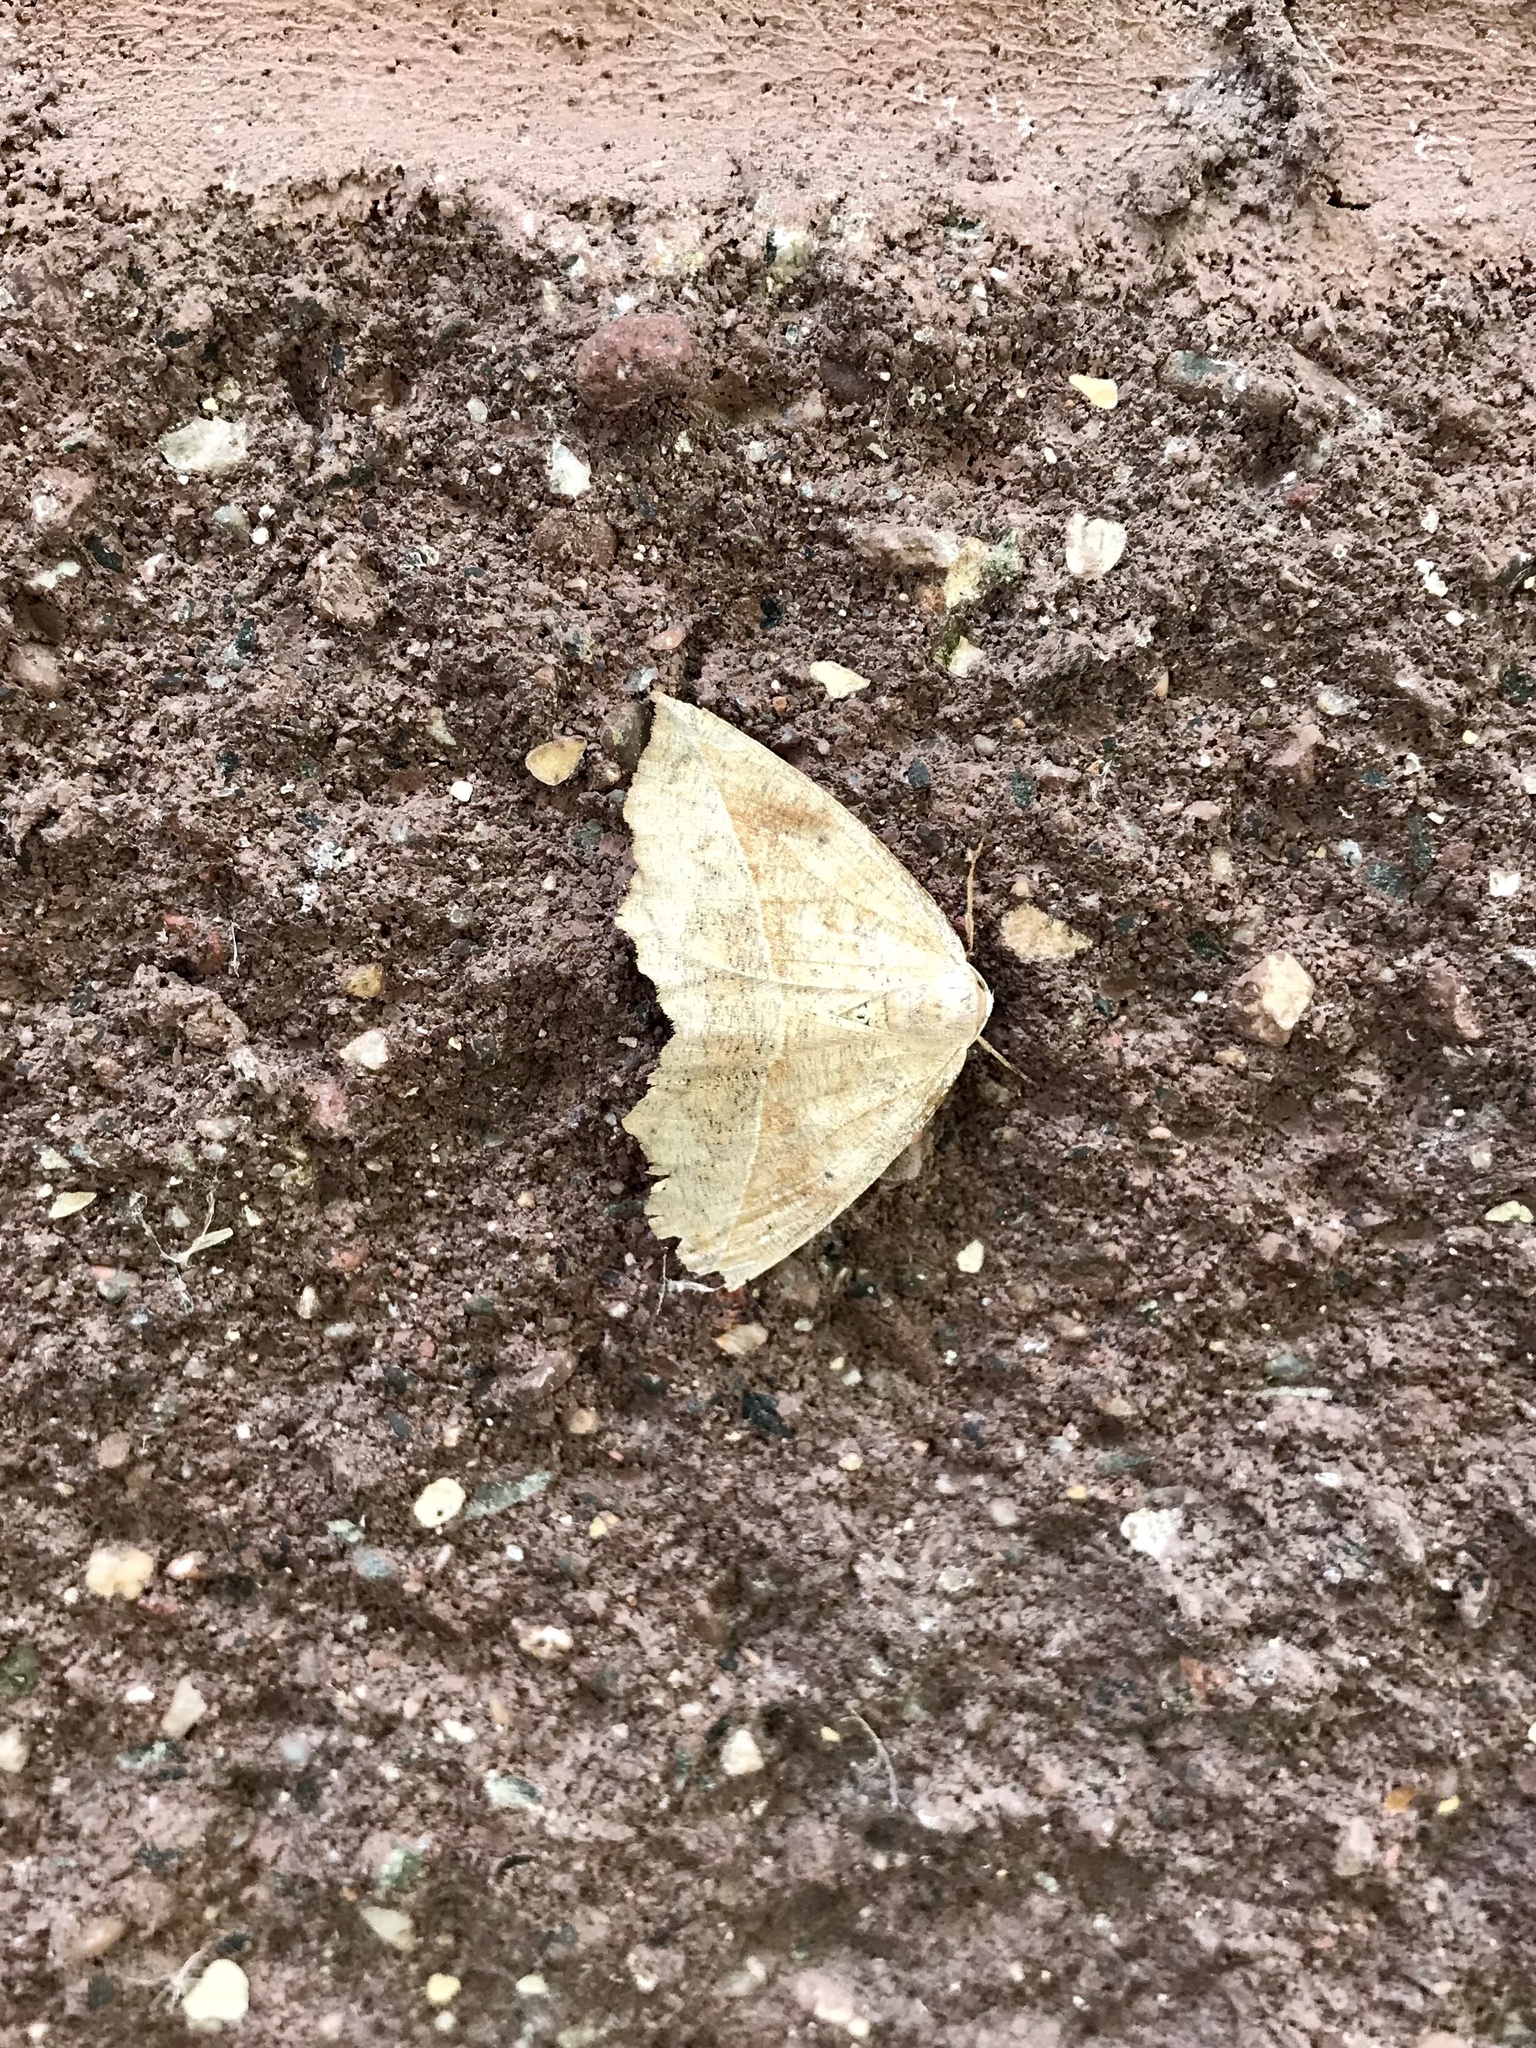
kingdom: Animalia
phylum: Arthropoda
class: Insecta
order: Lepidoptera
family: Geometridae
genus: Eutrapela
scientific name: Eutrapela clemataria
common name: Curved-toothed geometer
